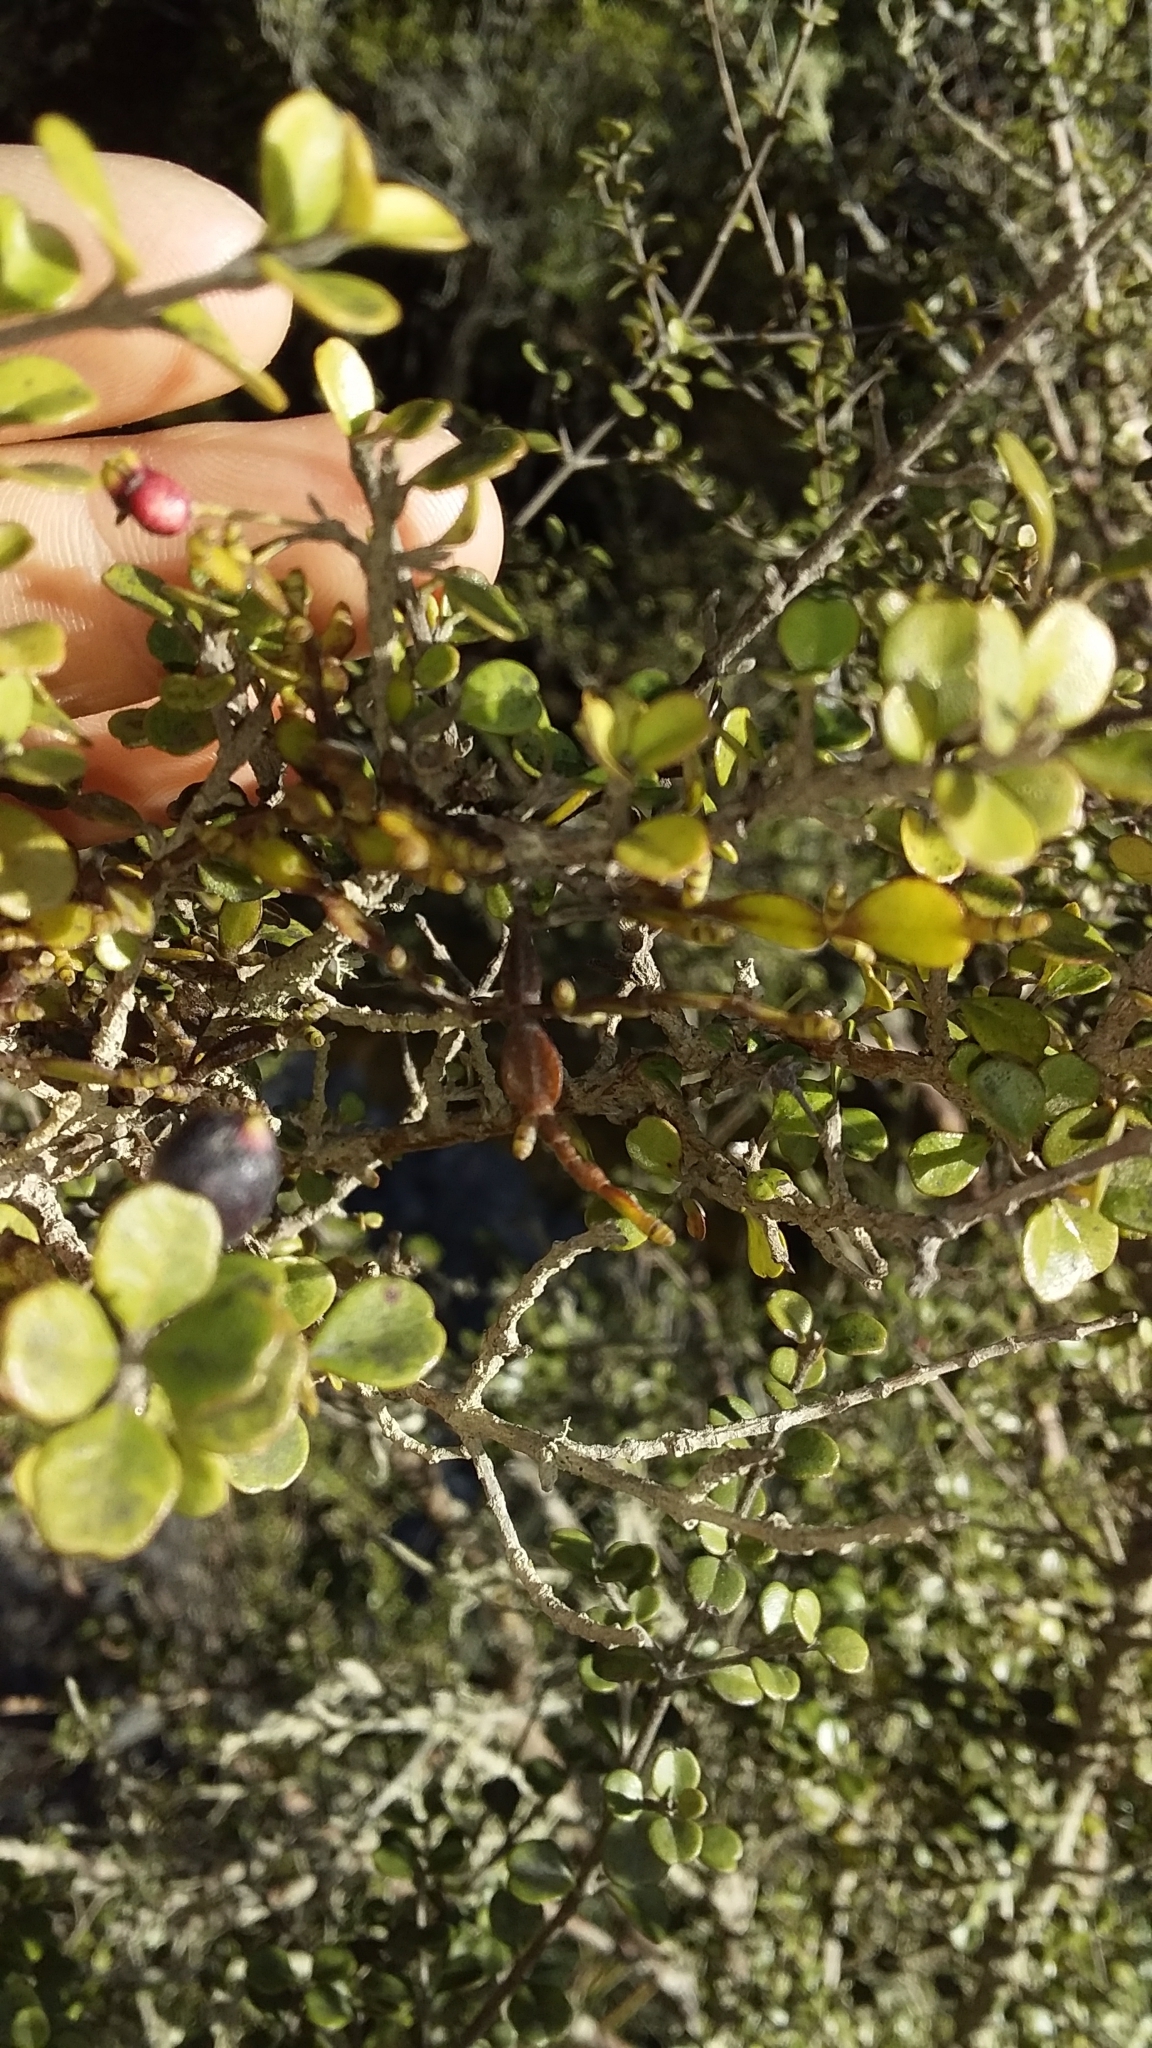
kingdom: Plantae
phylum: Tracheophyta
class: Magnoliopsida
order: Santalales
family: Viscaceae
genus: Korthalsella
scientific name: Korthalsella lindsayi
